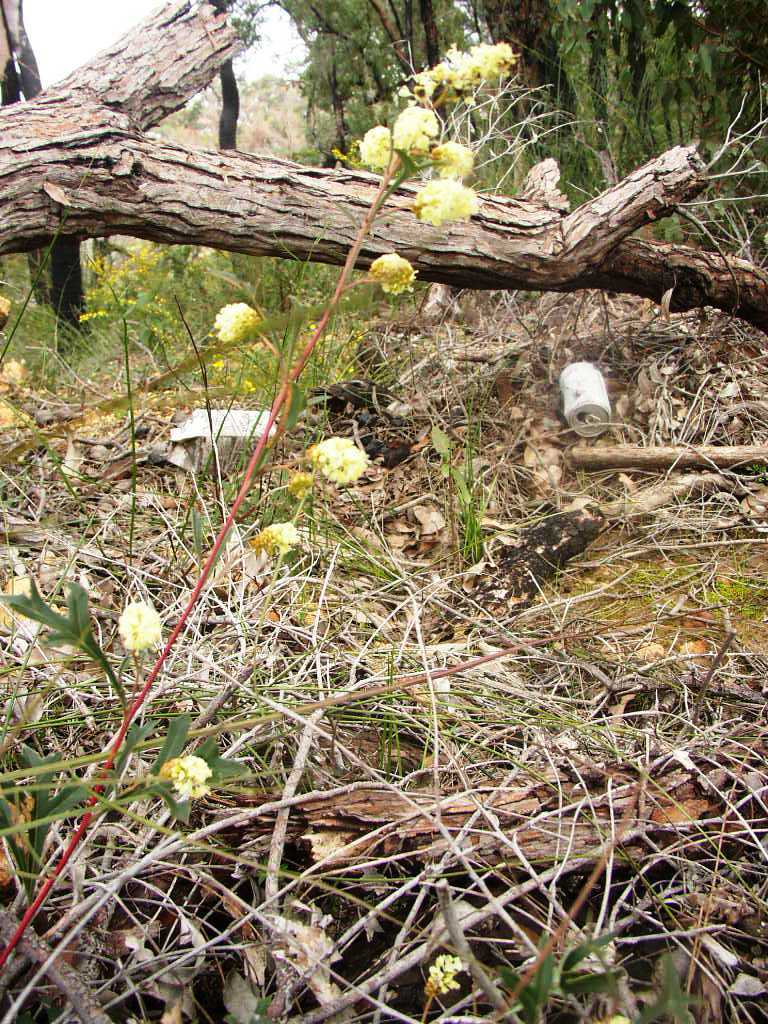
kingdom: Plantae
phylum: Tracheophyta
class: Magnoliopsida
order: Proteales
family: Proteaceae
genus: Grevillea
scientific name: Grevillea synaphea
